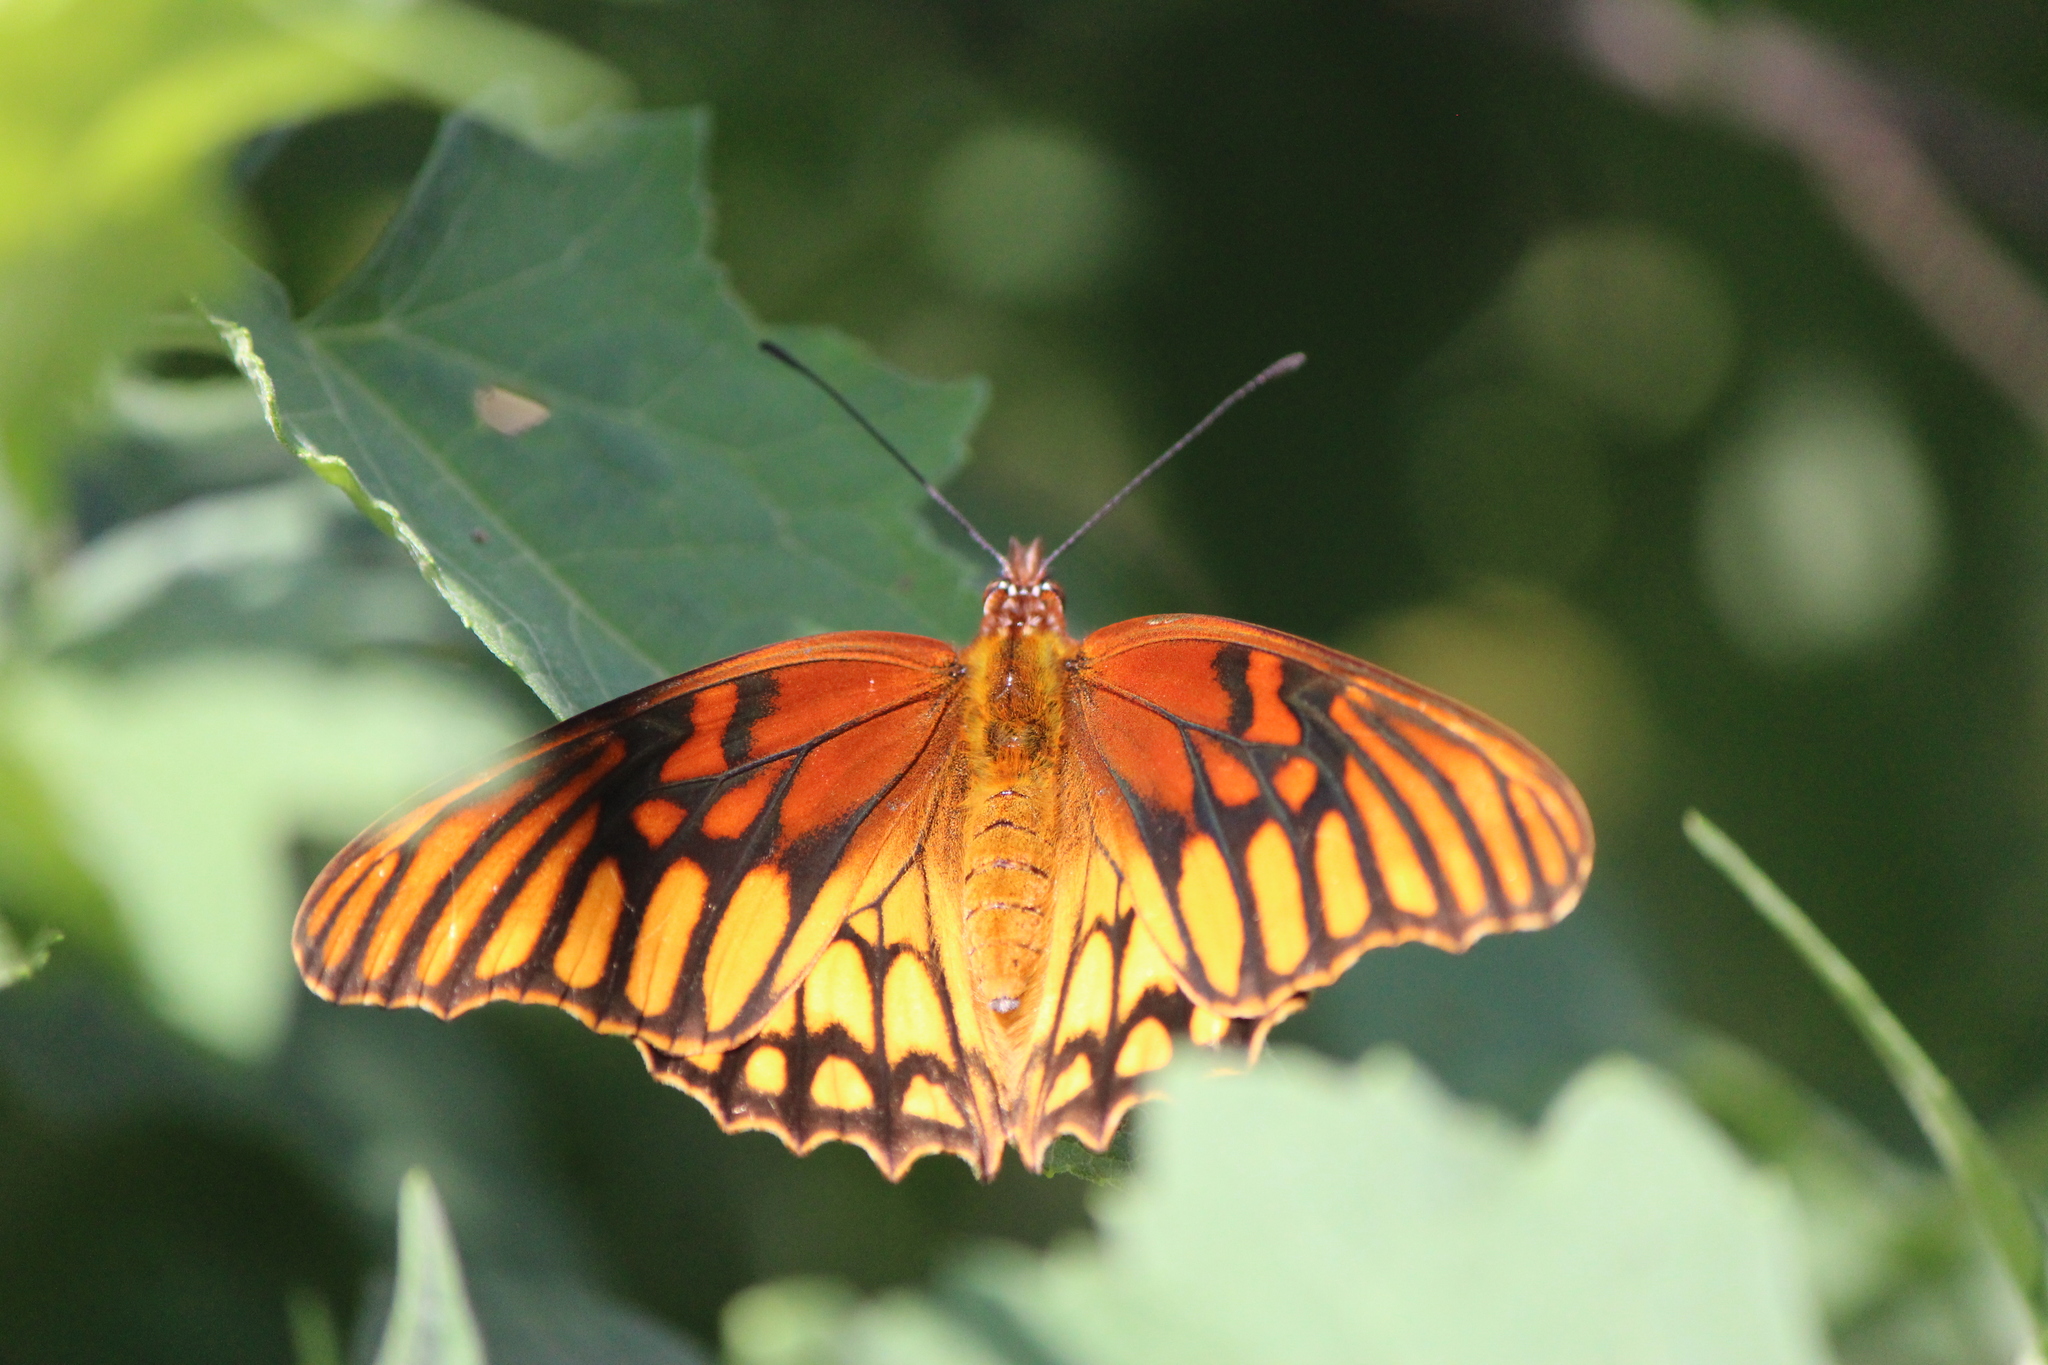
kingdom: Animalia
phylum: Arthropoda
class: Insecta
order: Lepidoptera
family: Nymphalidae
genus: Dione
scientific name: Dione moneta
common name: Mexican silverspot
